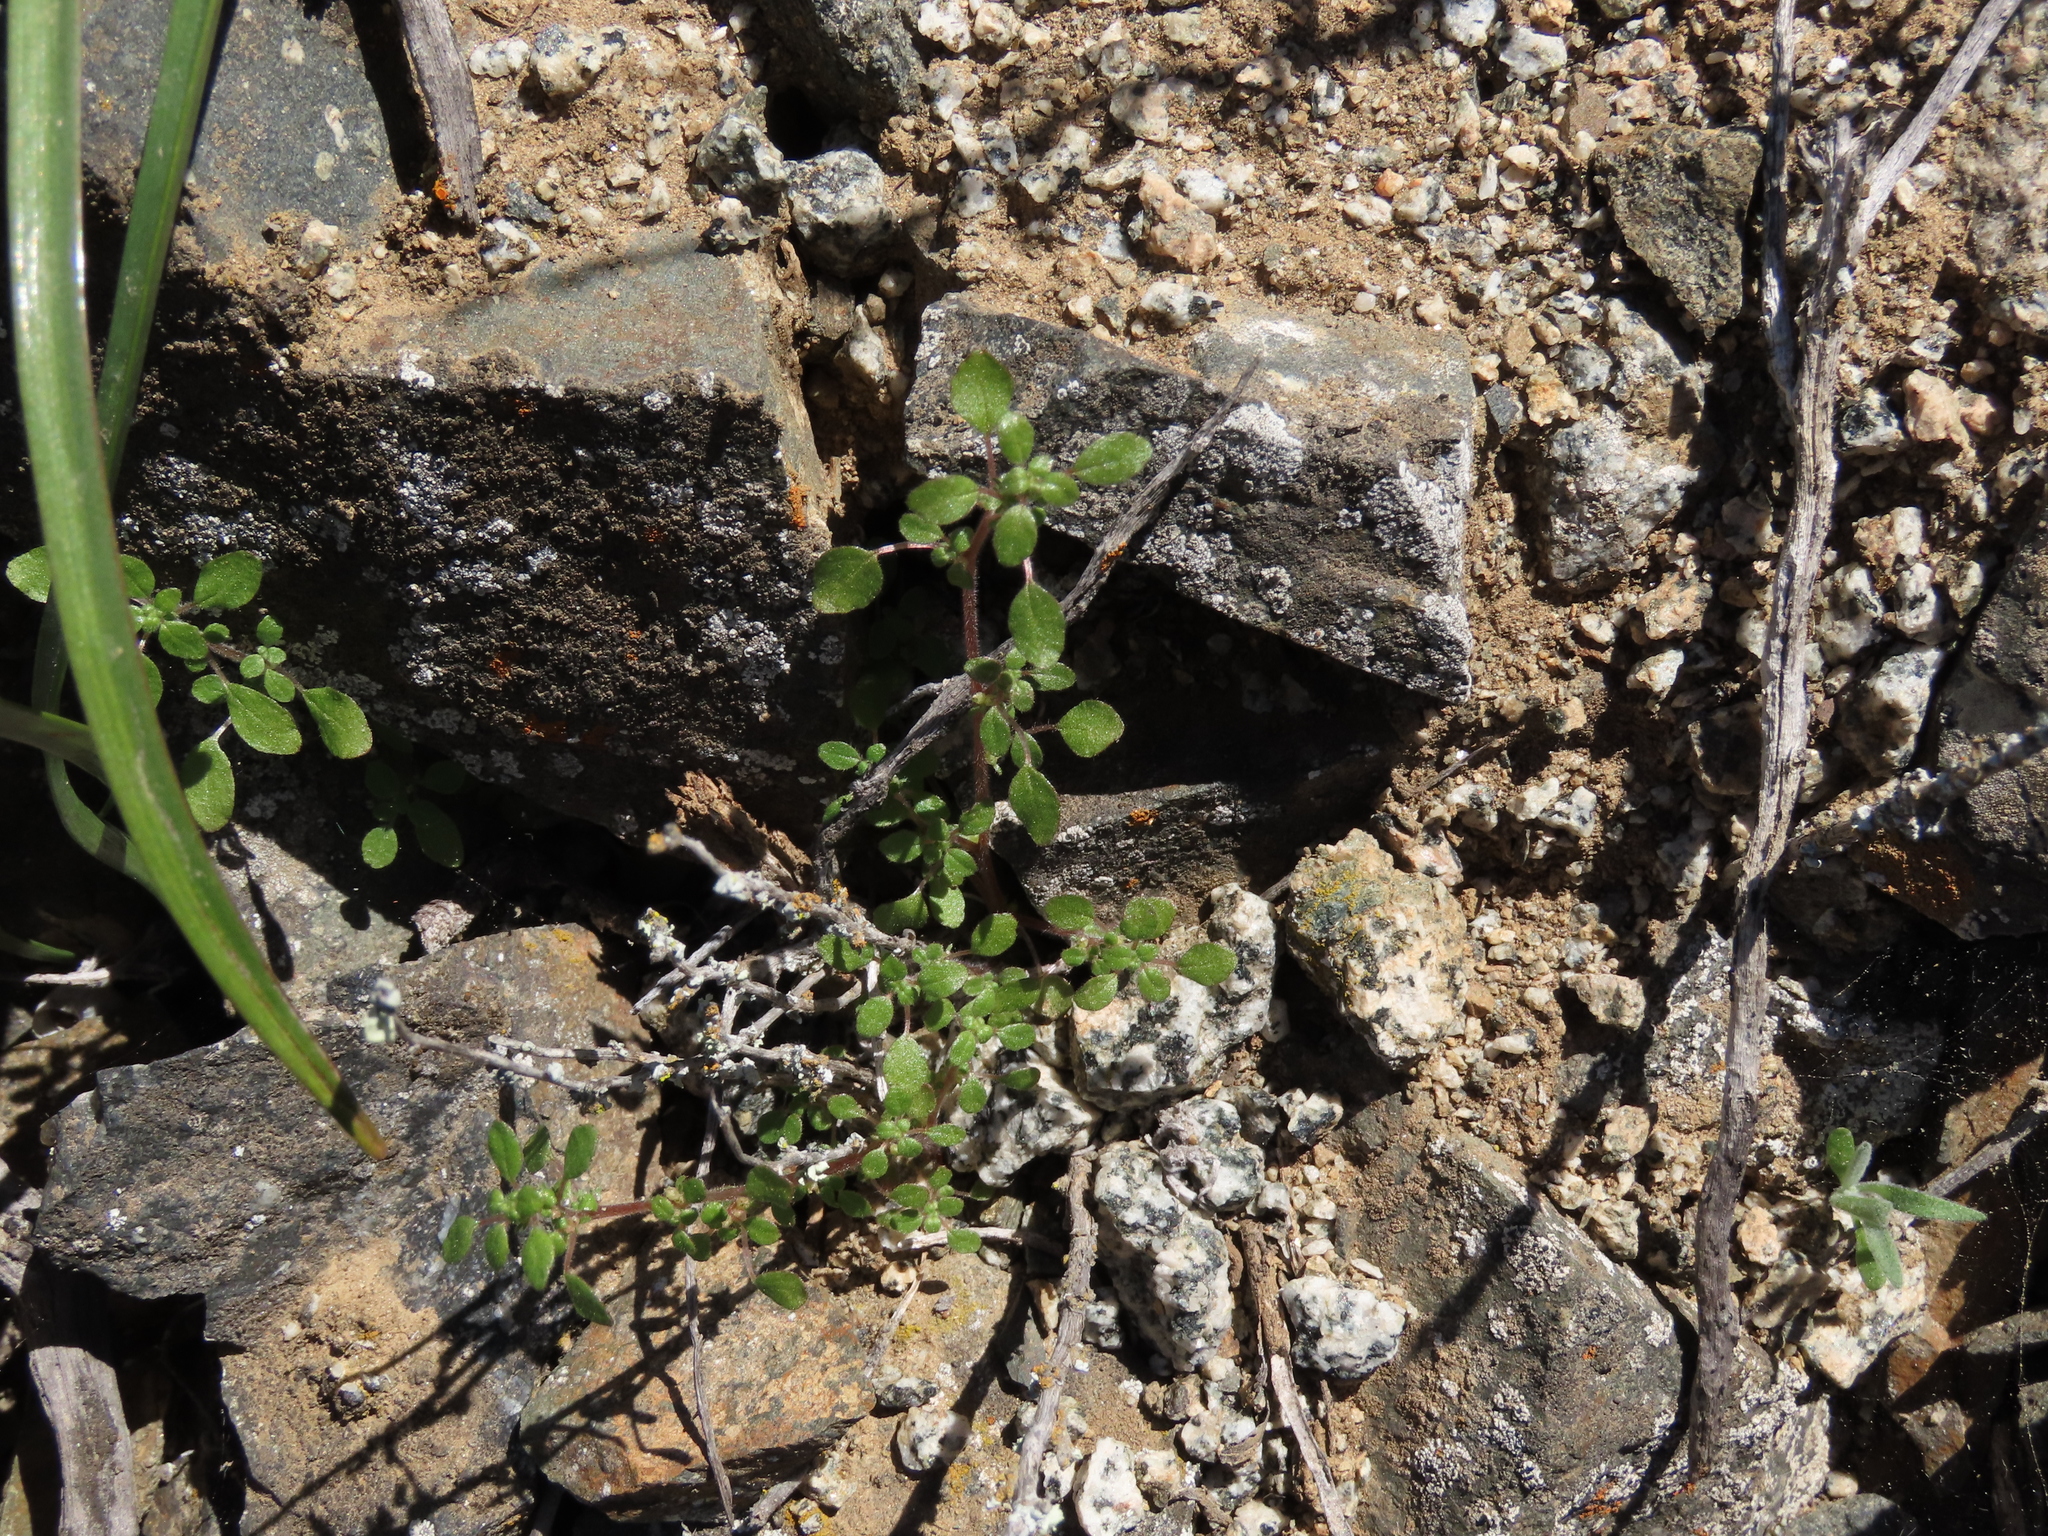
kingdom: Plantae
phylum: Tracheophyta
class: Magnoliopsida
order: Rosales
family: Urticaceae
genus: Parietaria
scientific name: Parietaria debilis
